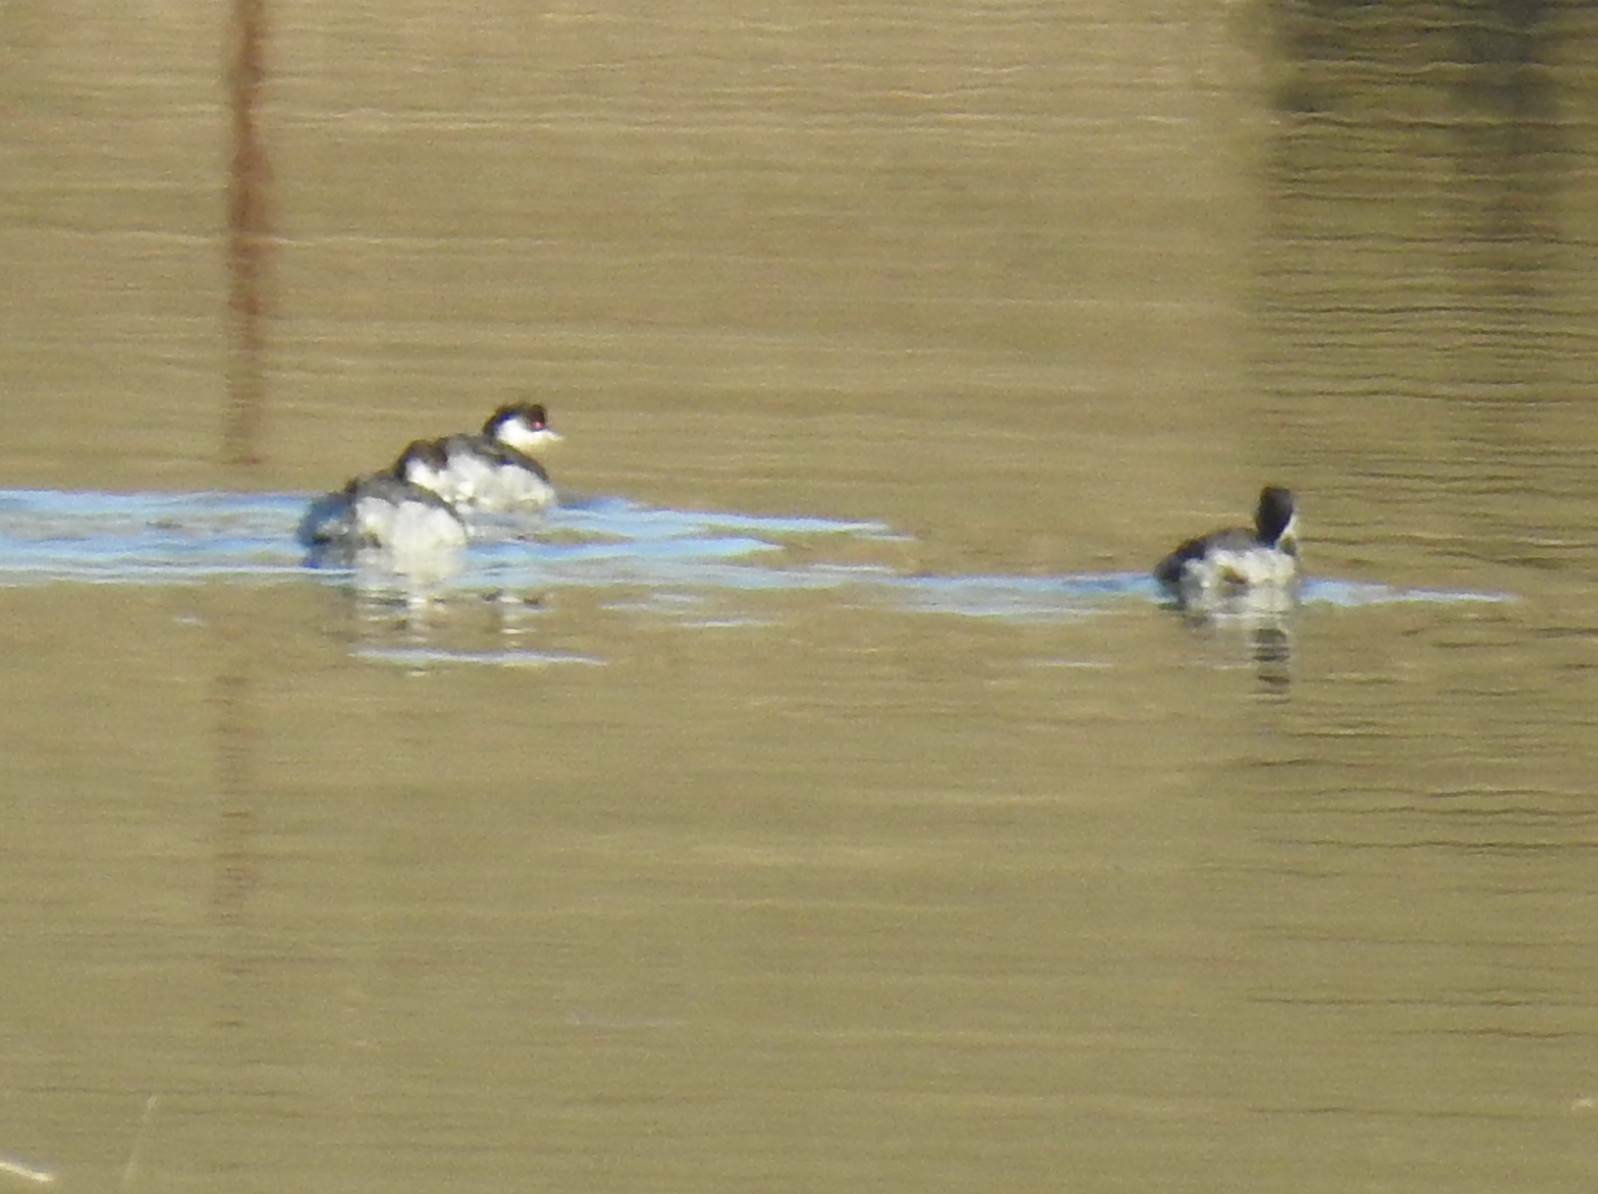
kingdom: Animalia
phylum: Chordata
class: Aves
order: Podicipediformes
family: Podicipedidae
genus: Podiceps
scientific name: Podiceps nigricollis
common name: Black-necked grebe
